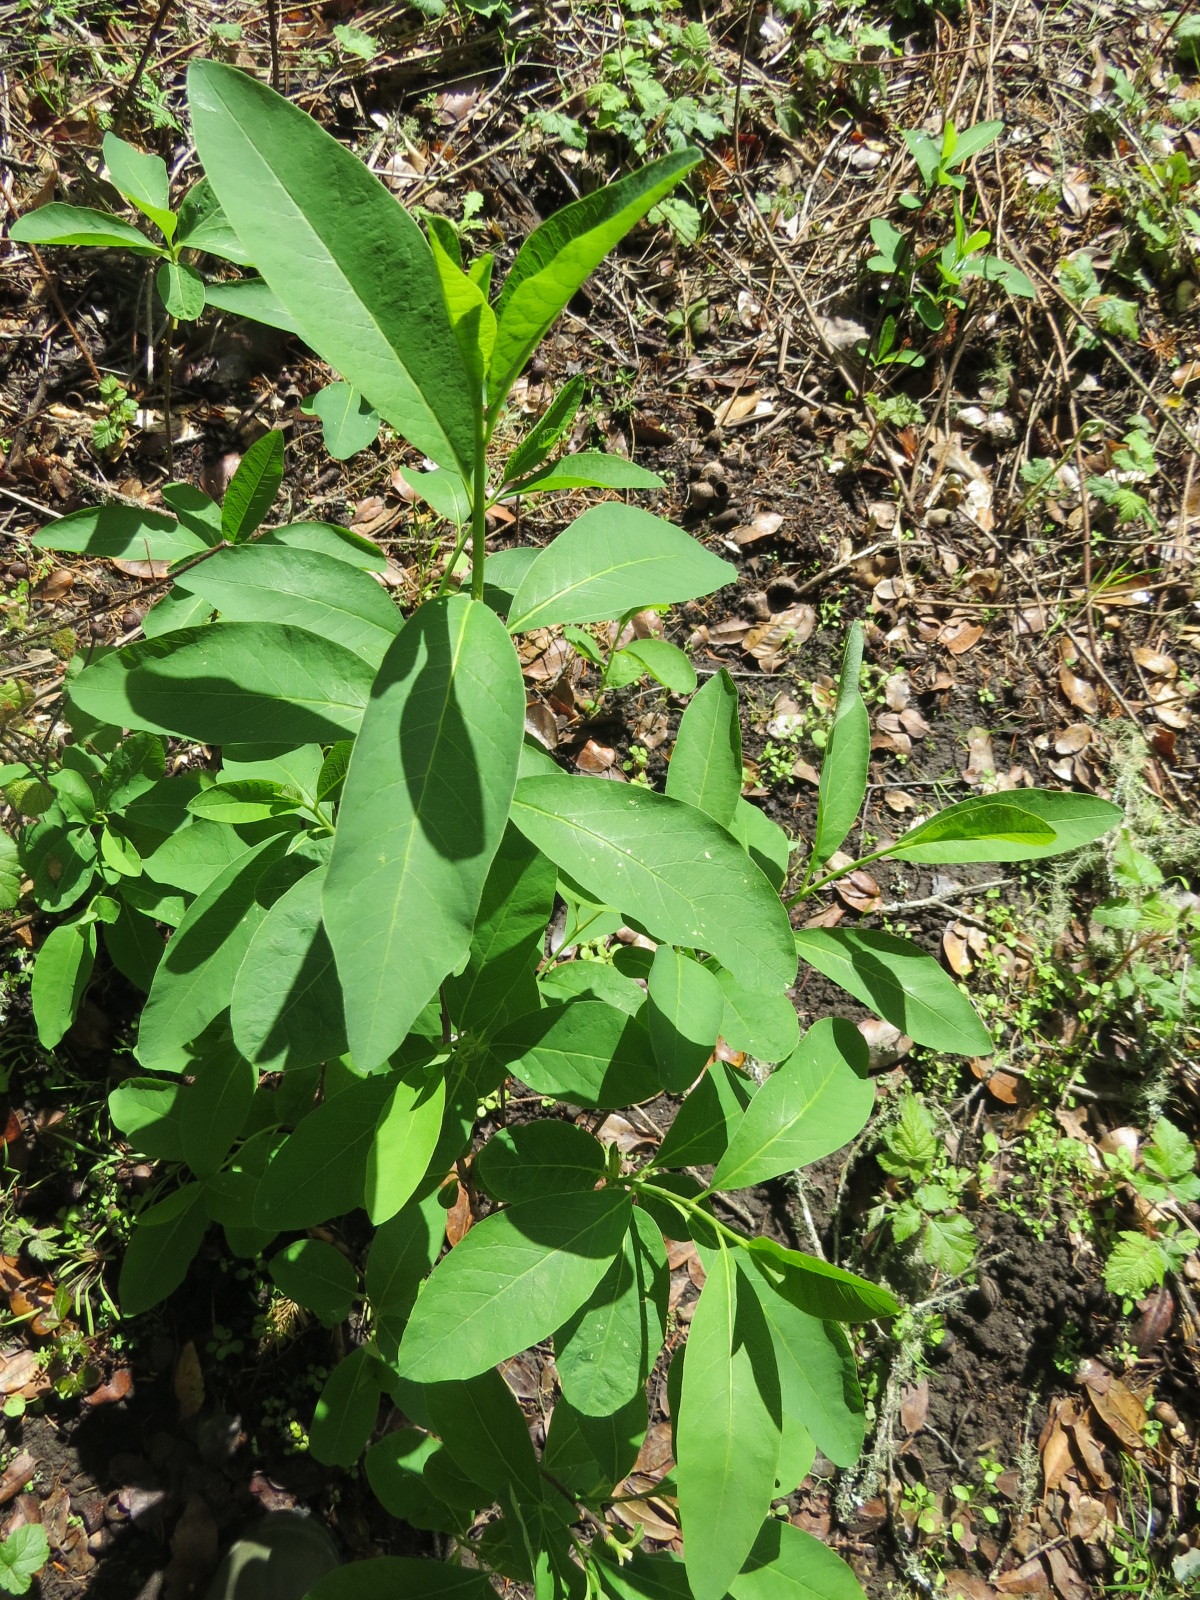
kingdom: Plantae
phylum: Tracheophyta
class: Magnoliopsida
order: Rosales
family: Rosaceae
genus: Oemleria
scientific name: Oemleria cerasiformis
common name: Osoberry
